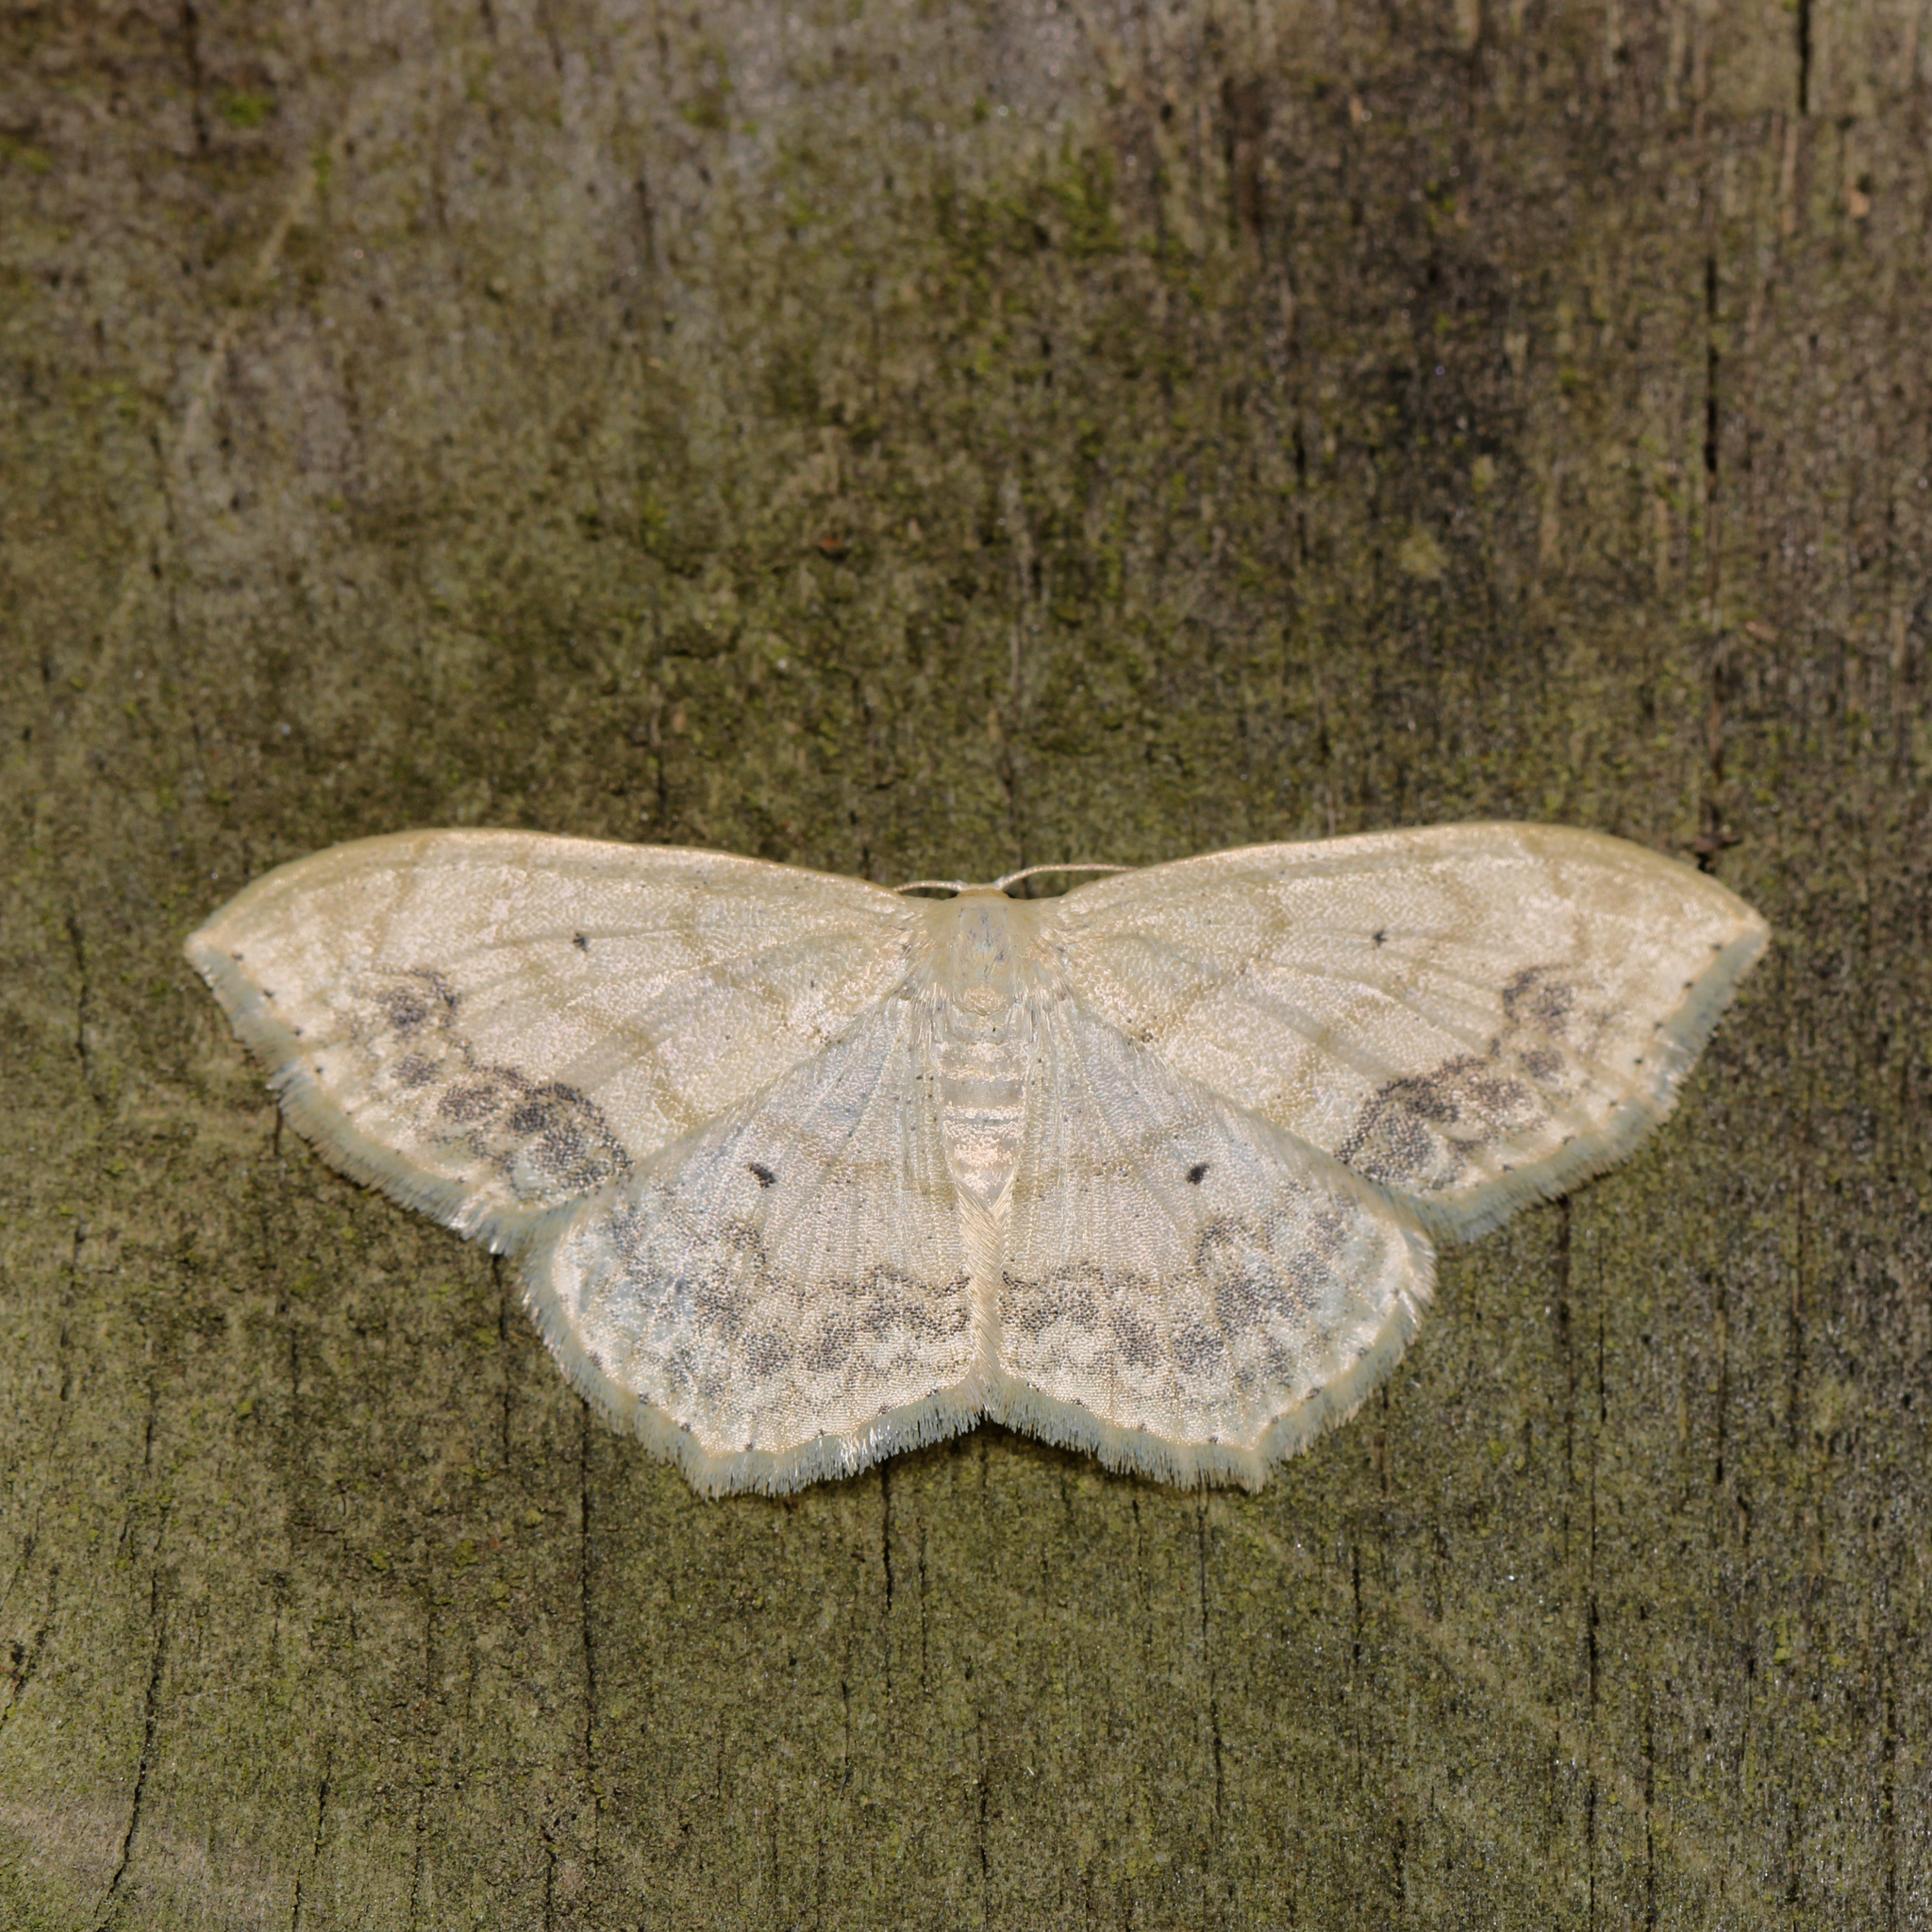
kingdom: Animalia
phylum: Arthropoda
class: Insecta
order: Lepidoptera
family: Geometridae
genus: Scopula
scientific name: Scopula limboundata
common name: Large lace border
